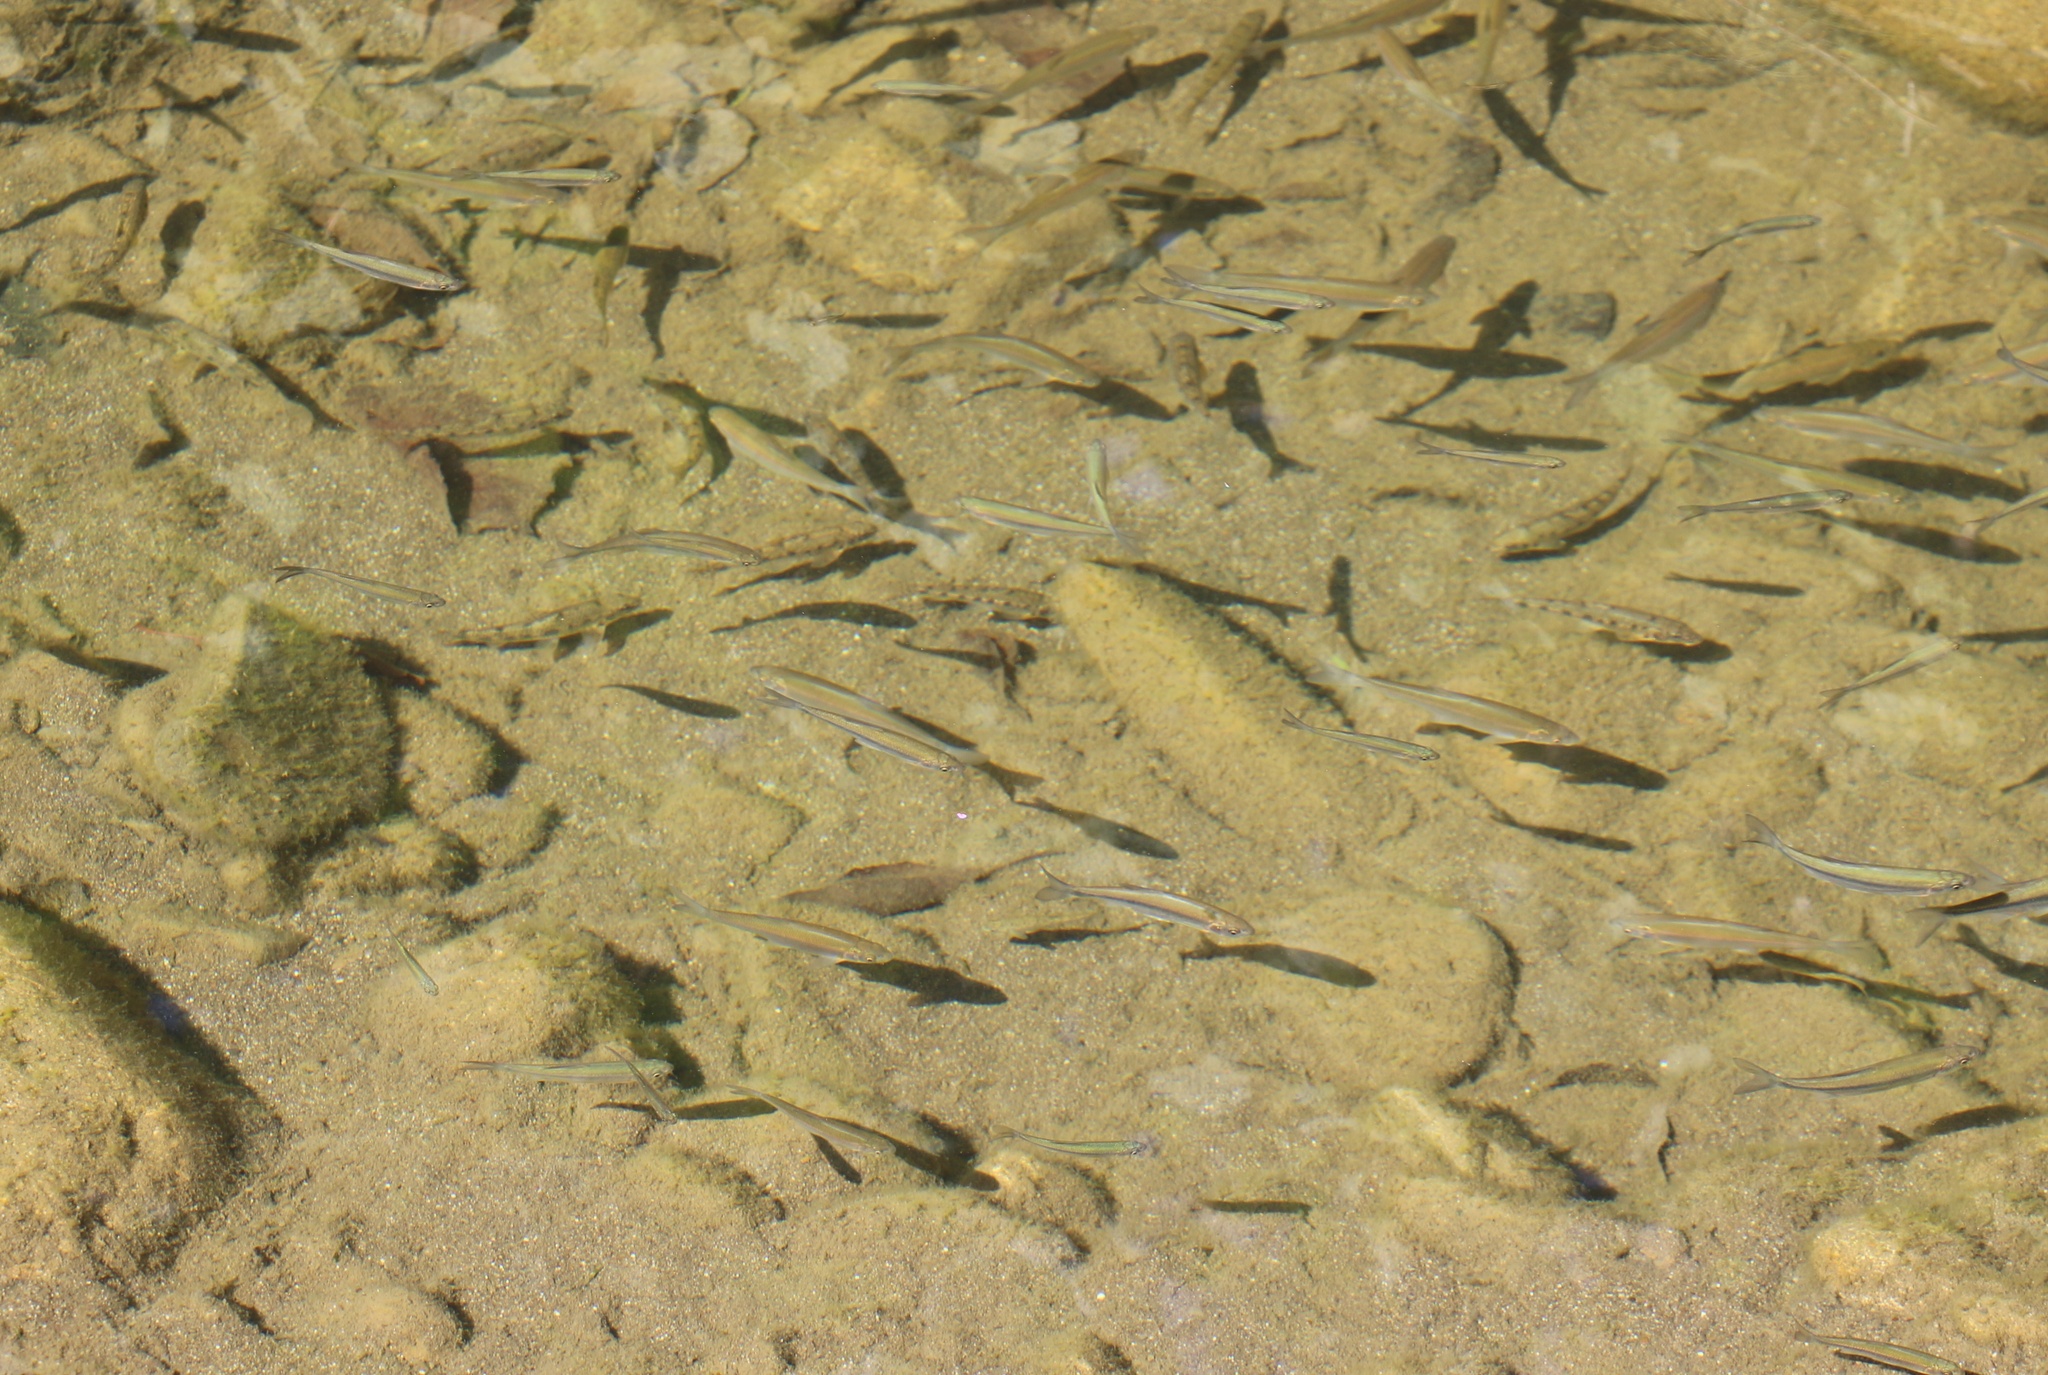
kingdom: Animalia
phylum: Chordata
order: Cypriniformes
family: Cyprinidae
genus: Alburnoides
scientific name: Alburnoides fasciatus
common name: Transcaucasian sprilin
